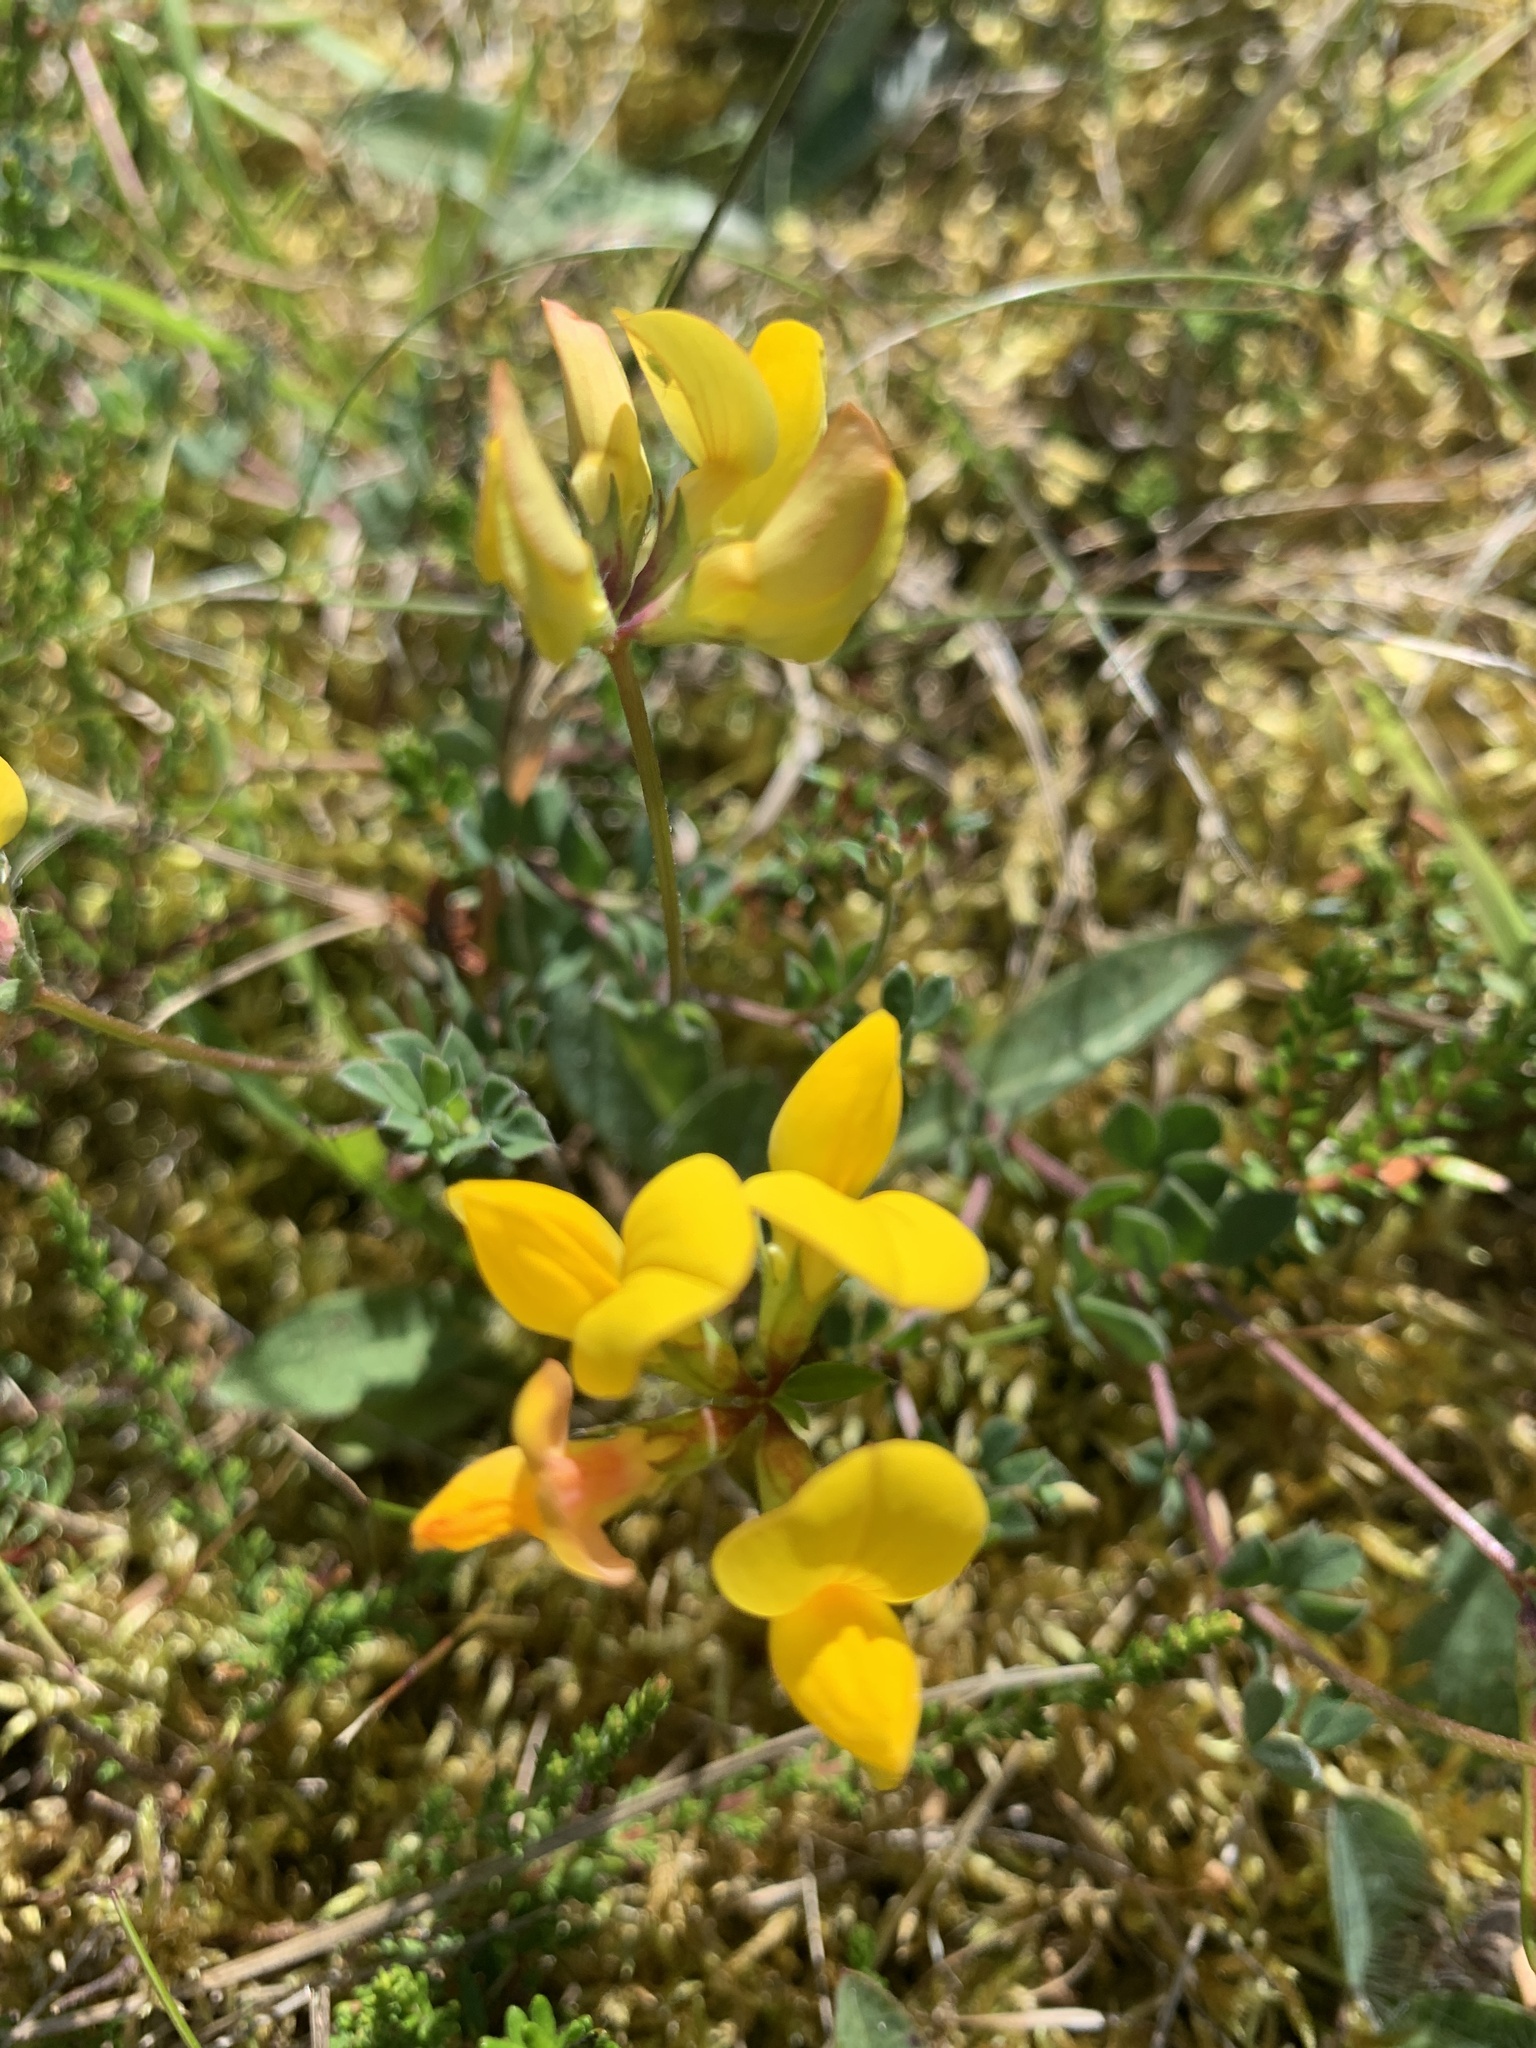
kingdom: Plantae
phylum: Tracheophyta
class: Magnoliopsida
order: Fabales
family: Fabaceae
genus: Lotus
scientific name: Lotus corniculatus
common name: Common bird's-foot-trefoil
